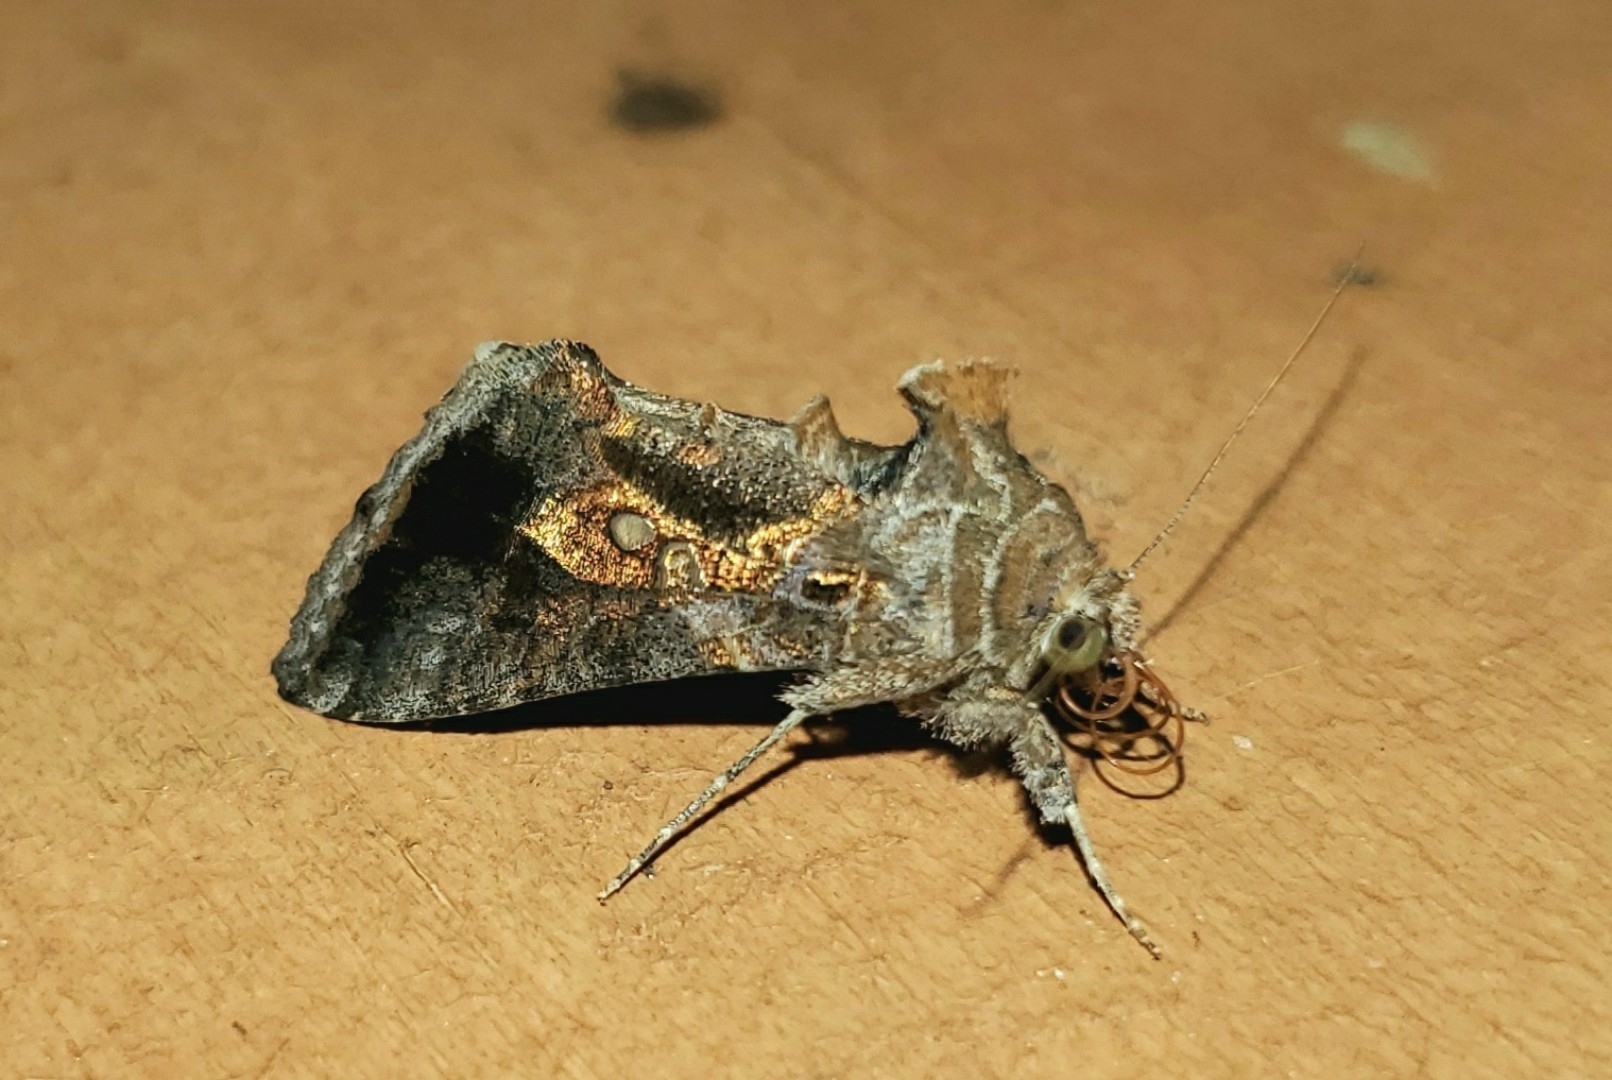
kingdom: Animalia
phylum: Arthropoda
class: Insecta
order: Lepidoptera
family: Noctuidae
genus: Chrysodeixis
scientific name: Chrysodeixis includens
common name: Cutworm moth
